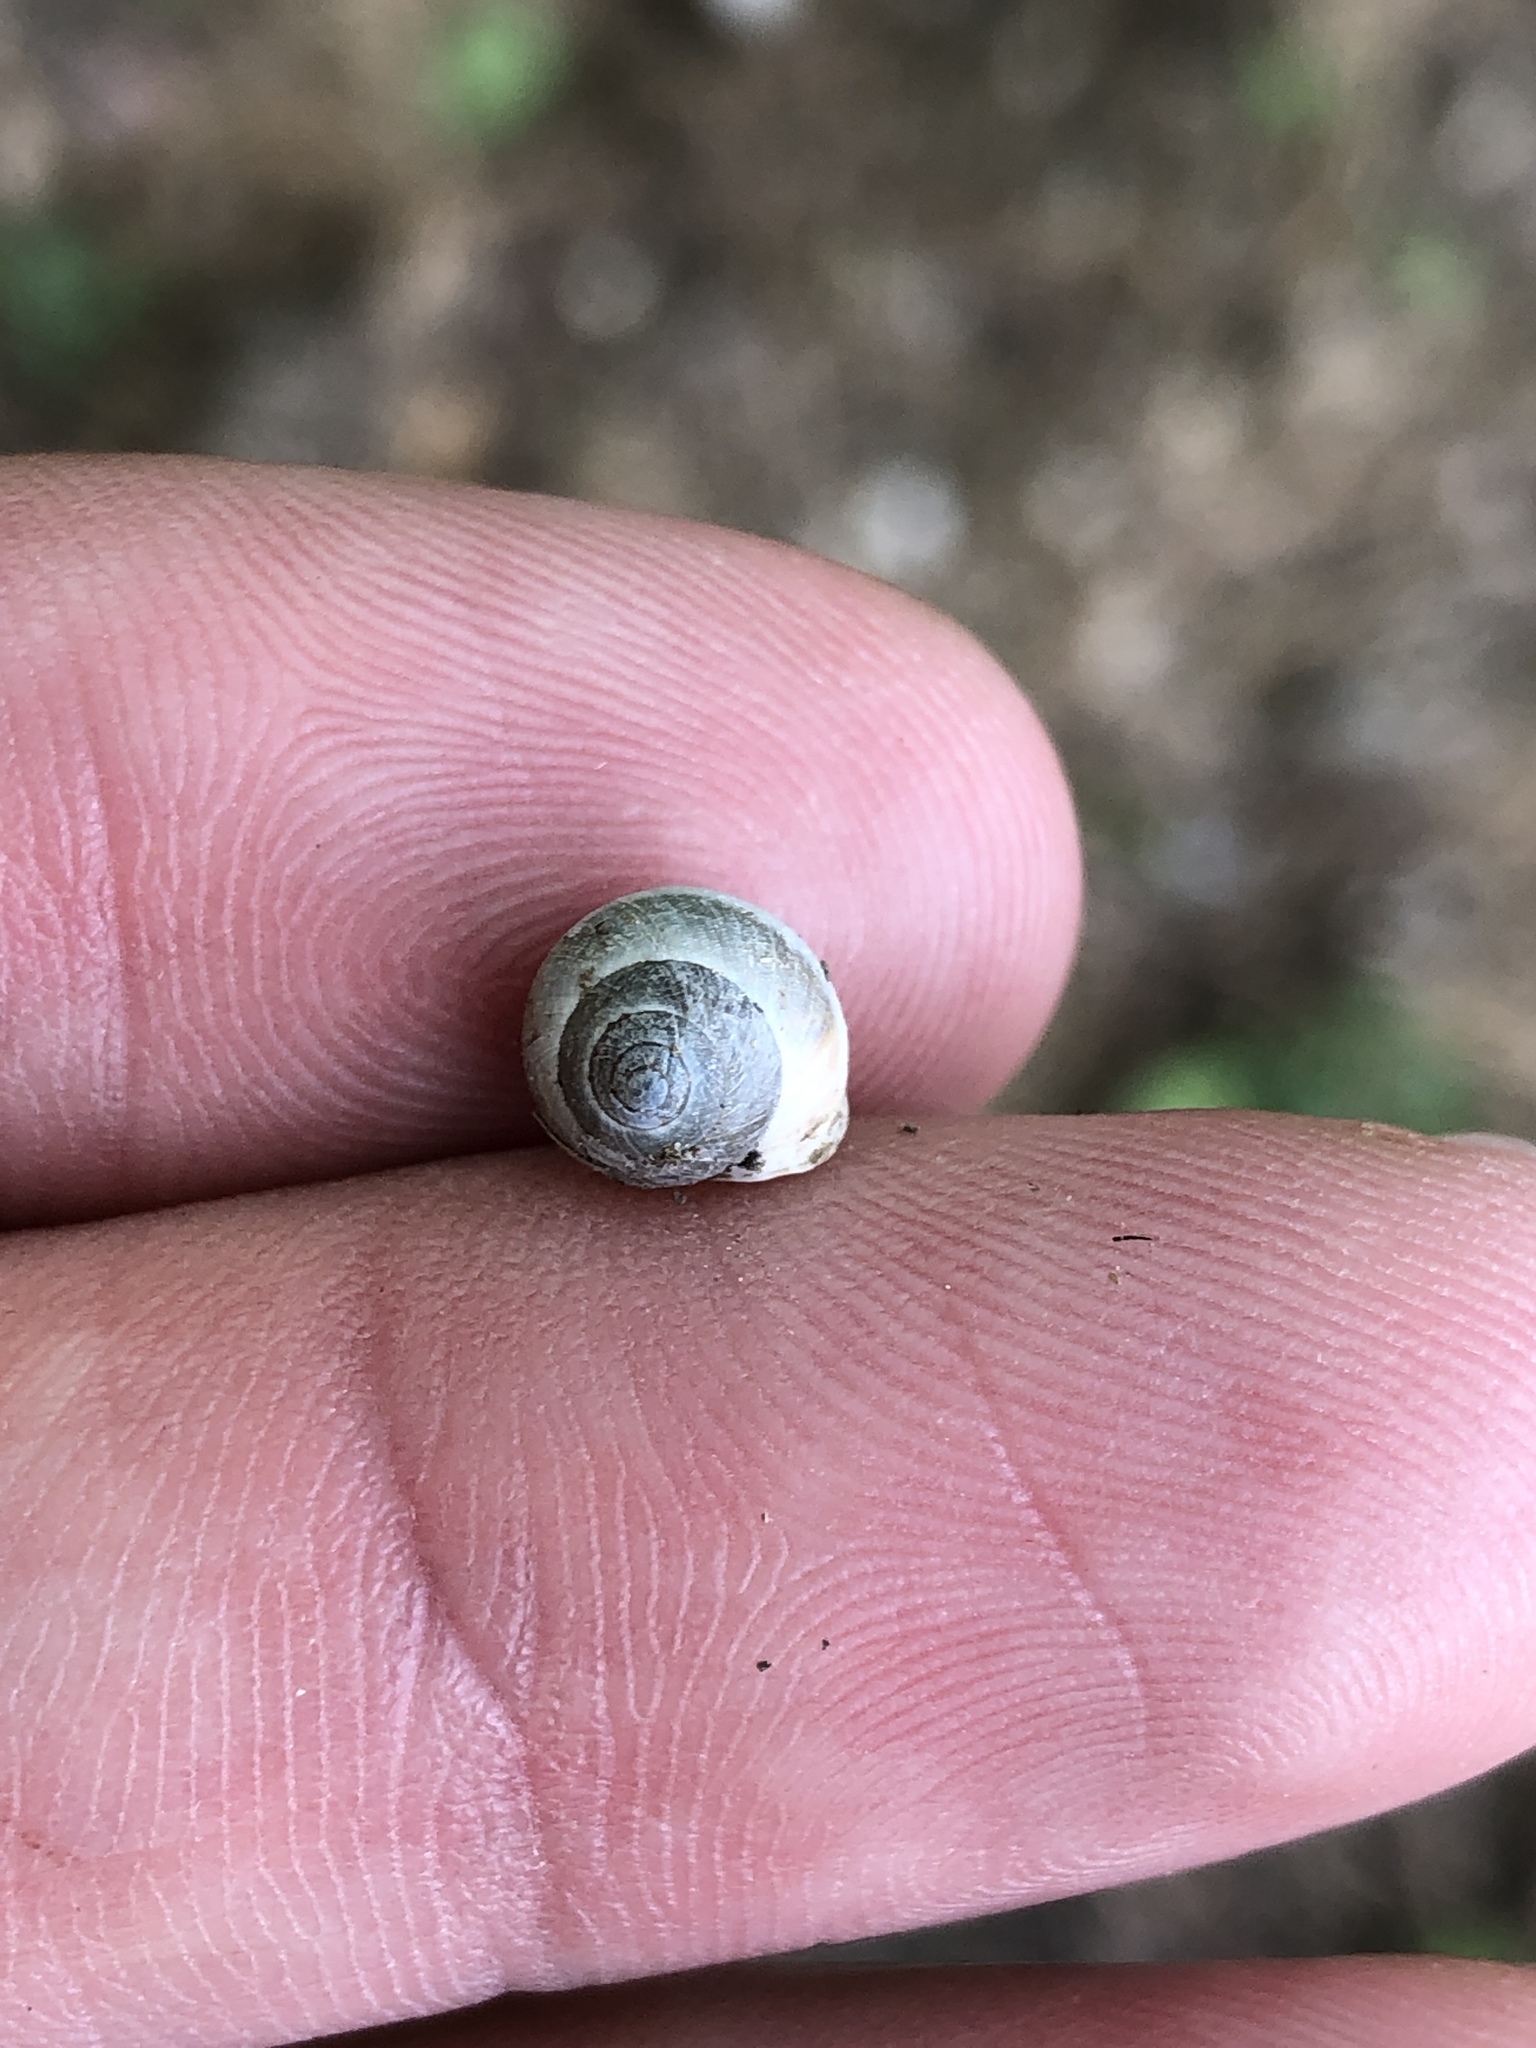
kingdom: Animalia
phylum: Mollusca
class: Gastropoda
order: Cycloneritida
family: Helicinidae
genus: Helicina
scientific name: Helicina orbiculata
